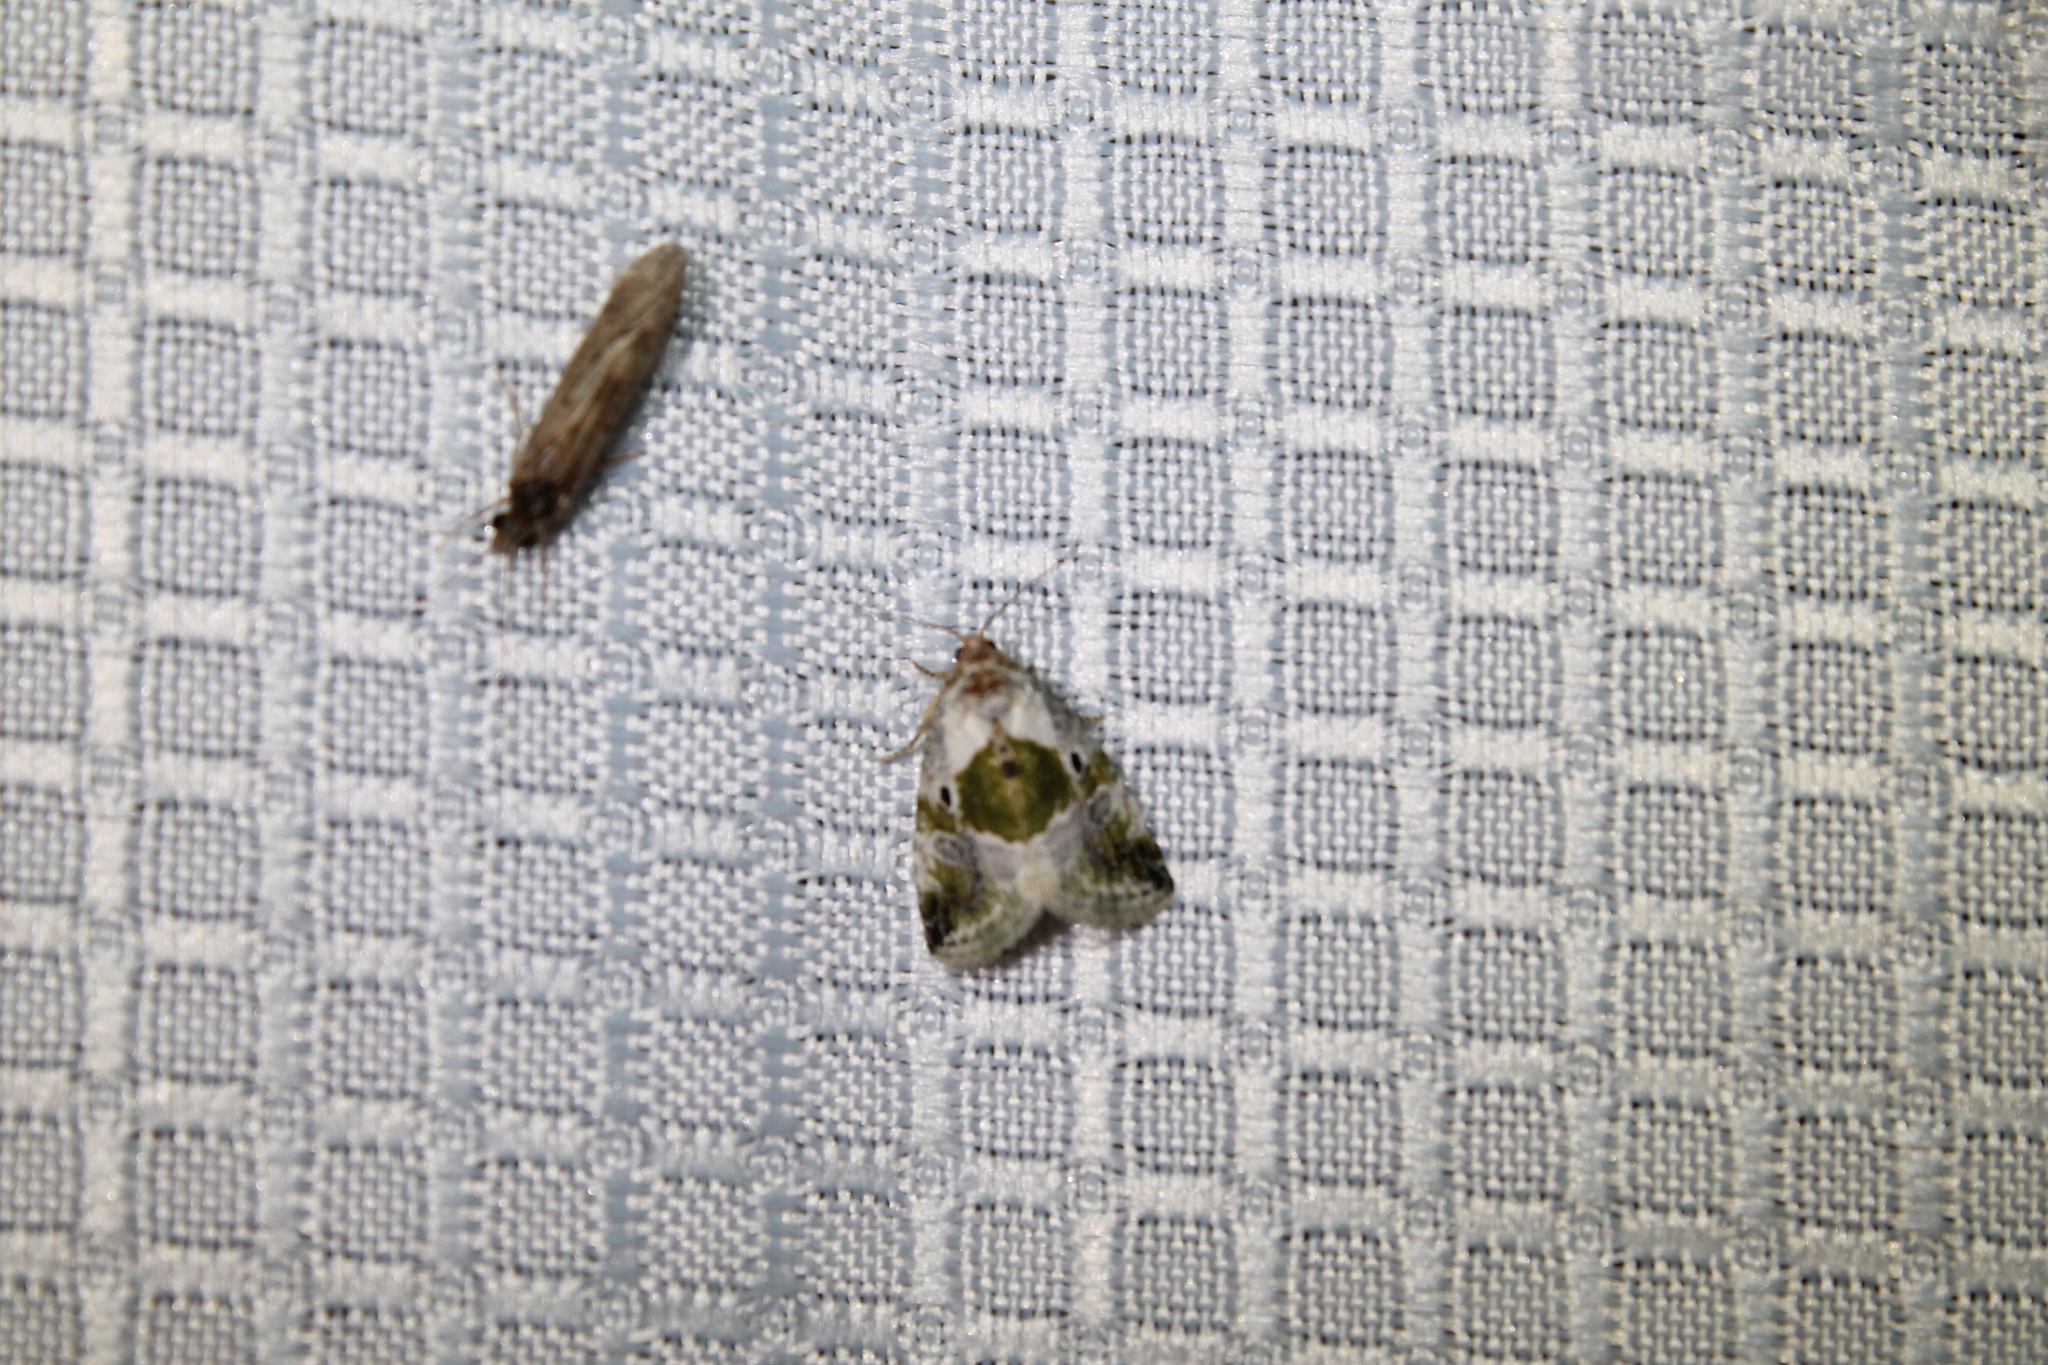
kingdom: Animalia
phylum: Arthropoda
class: Insecta
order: Lepidoptera
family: Noctuidae
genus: Maliattha
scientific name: Maliattha synochitis
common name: Black-dotted glyph
